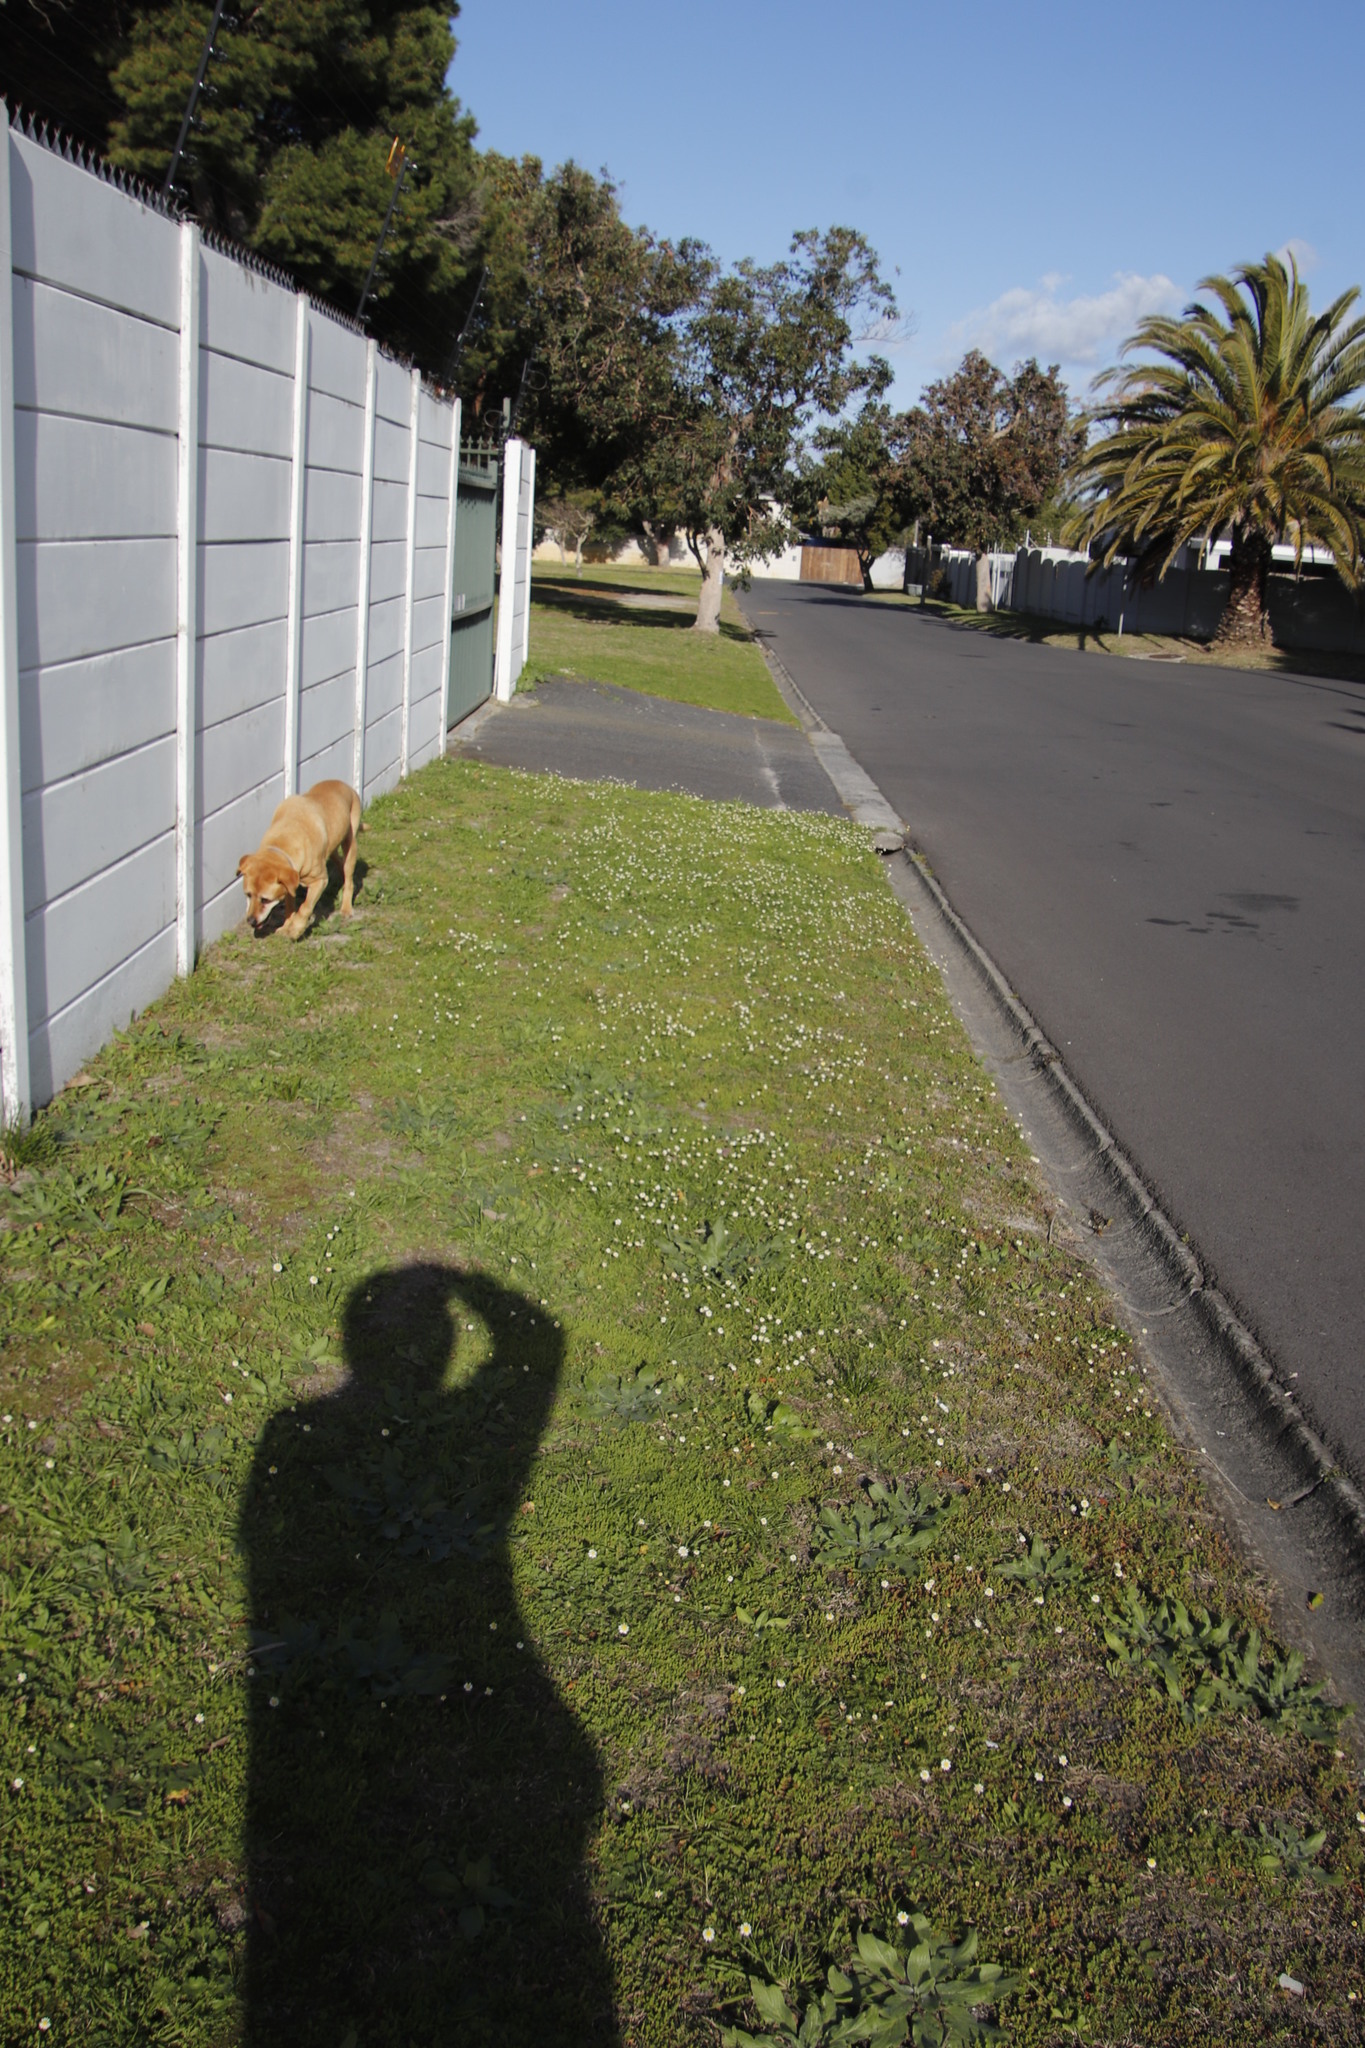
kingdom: Plantae
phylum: Tracheophyta
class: Magnoliopsida
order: Asterales
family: Asteraceae
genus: Cotula
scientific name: Cotula turbinata
